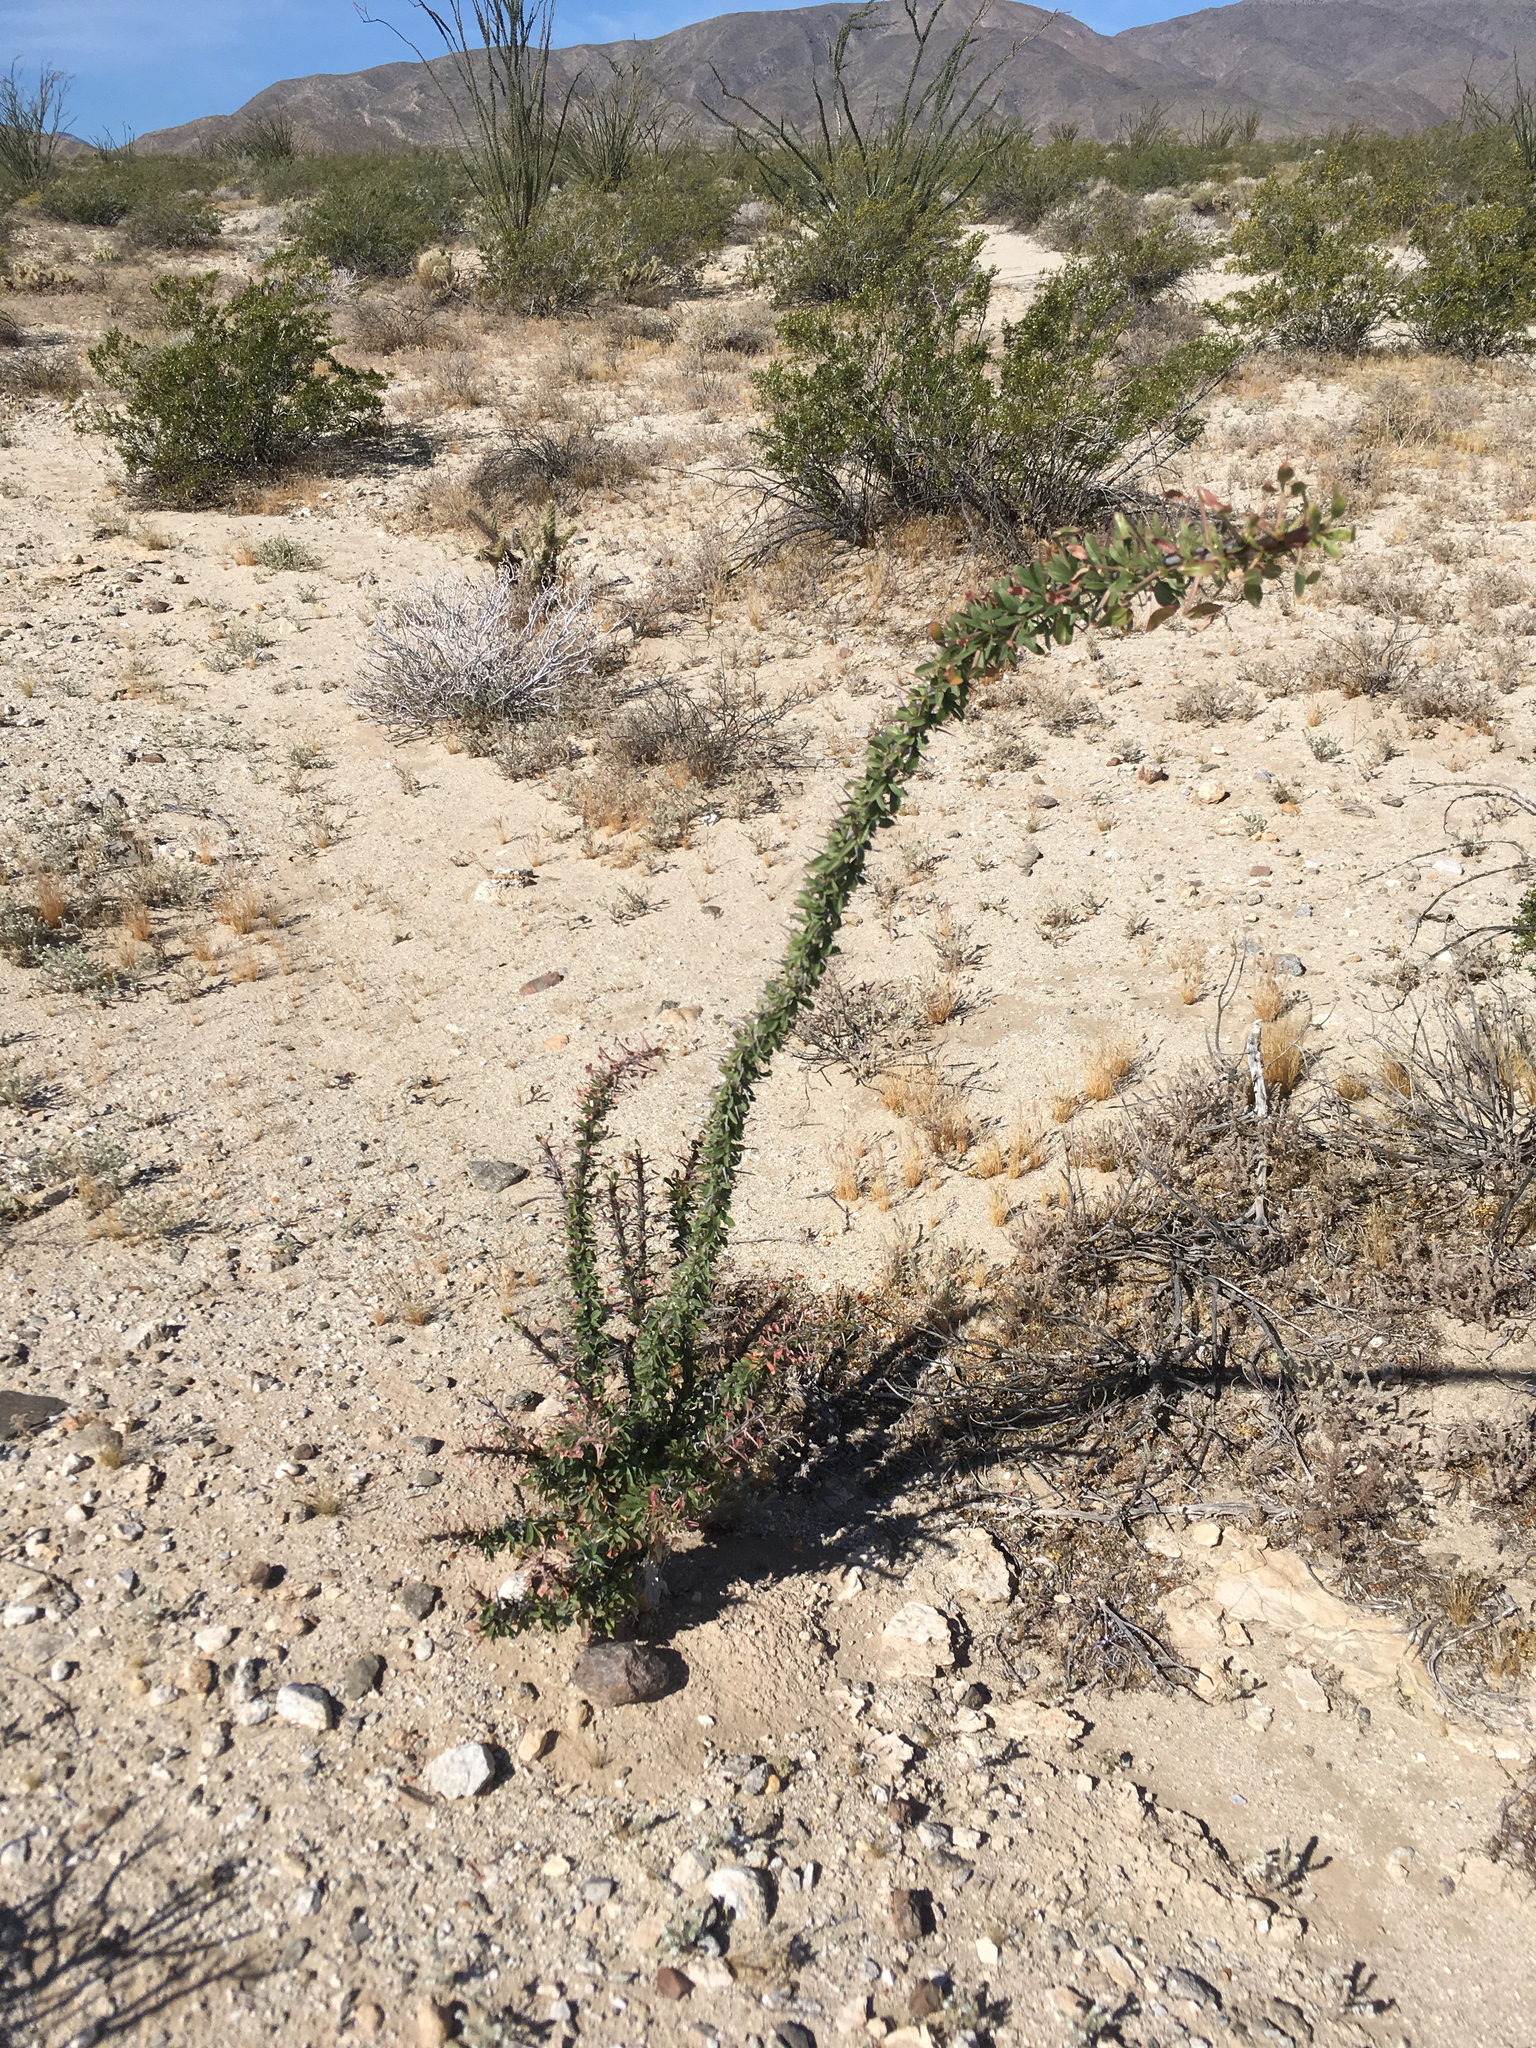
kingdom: Plantae
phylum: Tracheophyta
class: Magnoliopsida
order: Ericales
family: Fouquieriaceae
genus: Fouquieria
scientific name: Fouquieria splendens
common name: Vine-cactus
